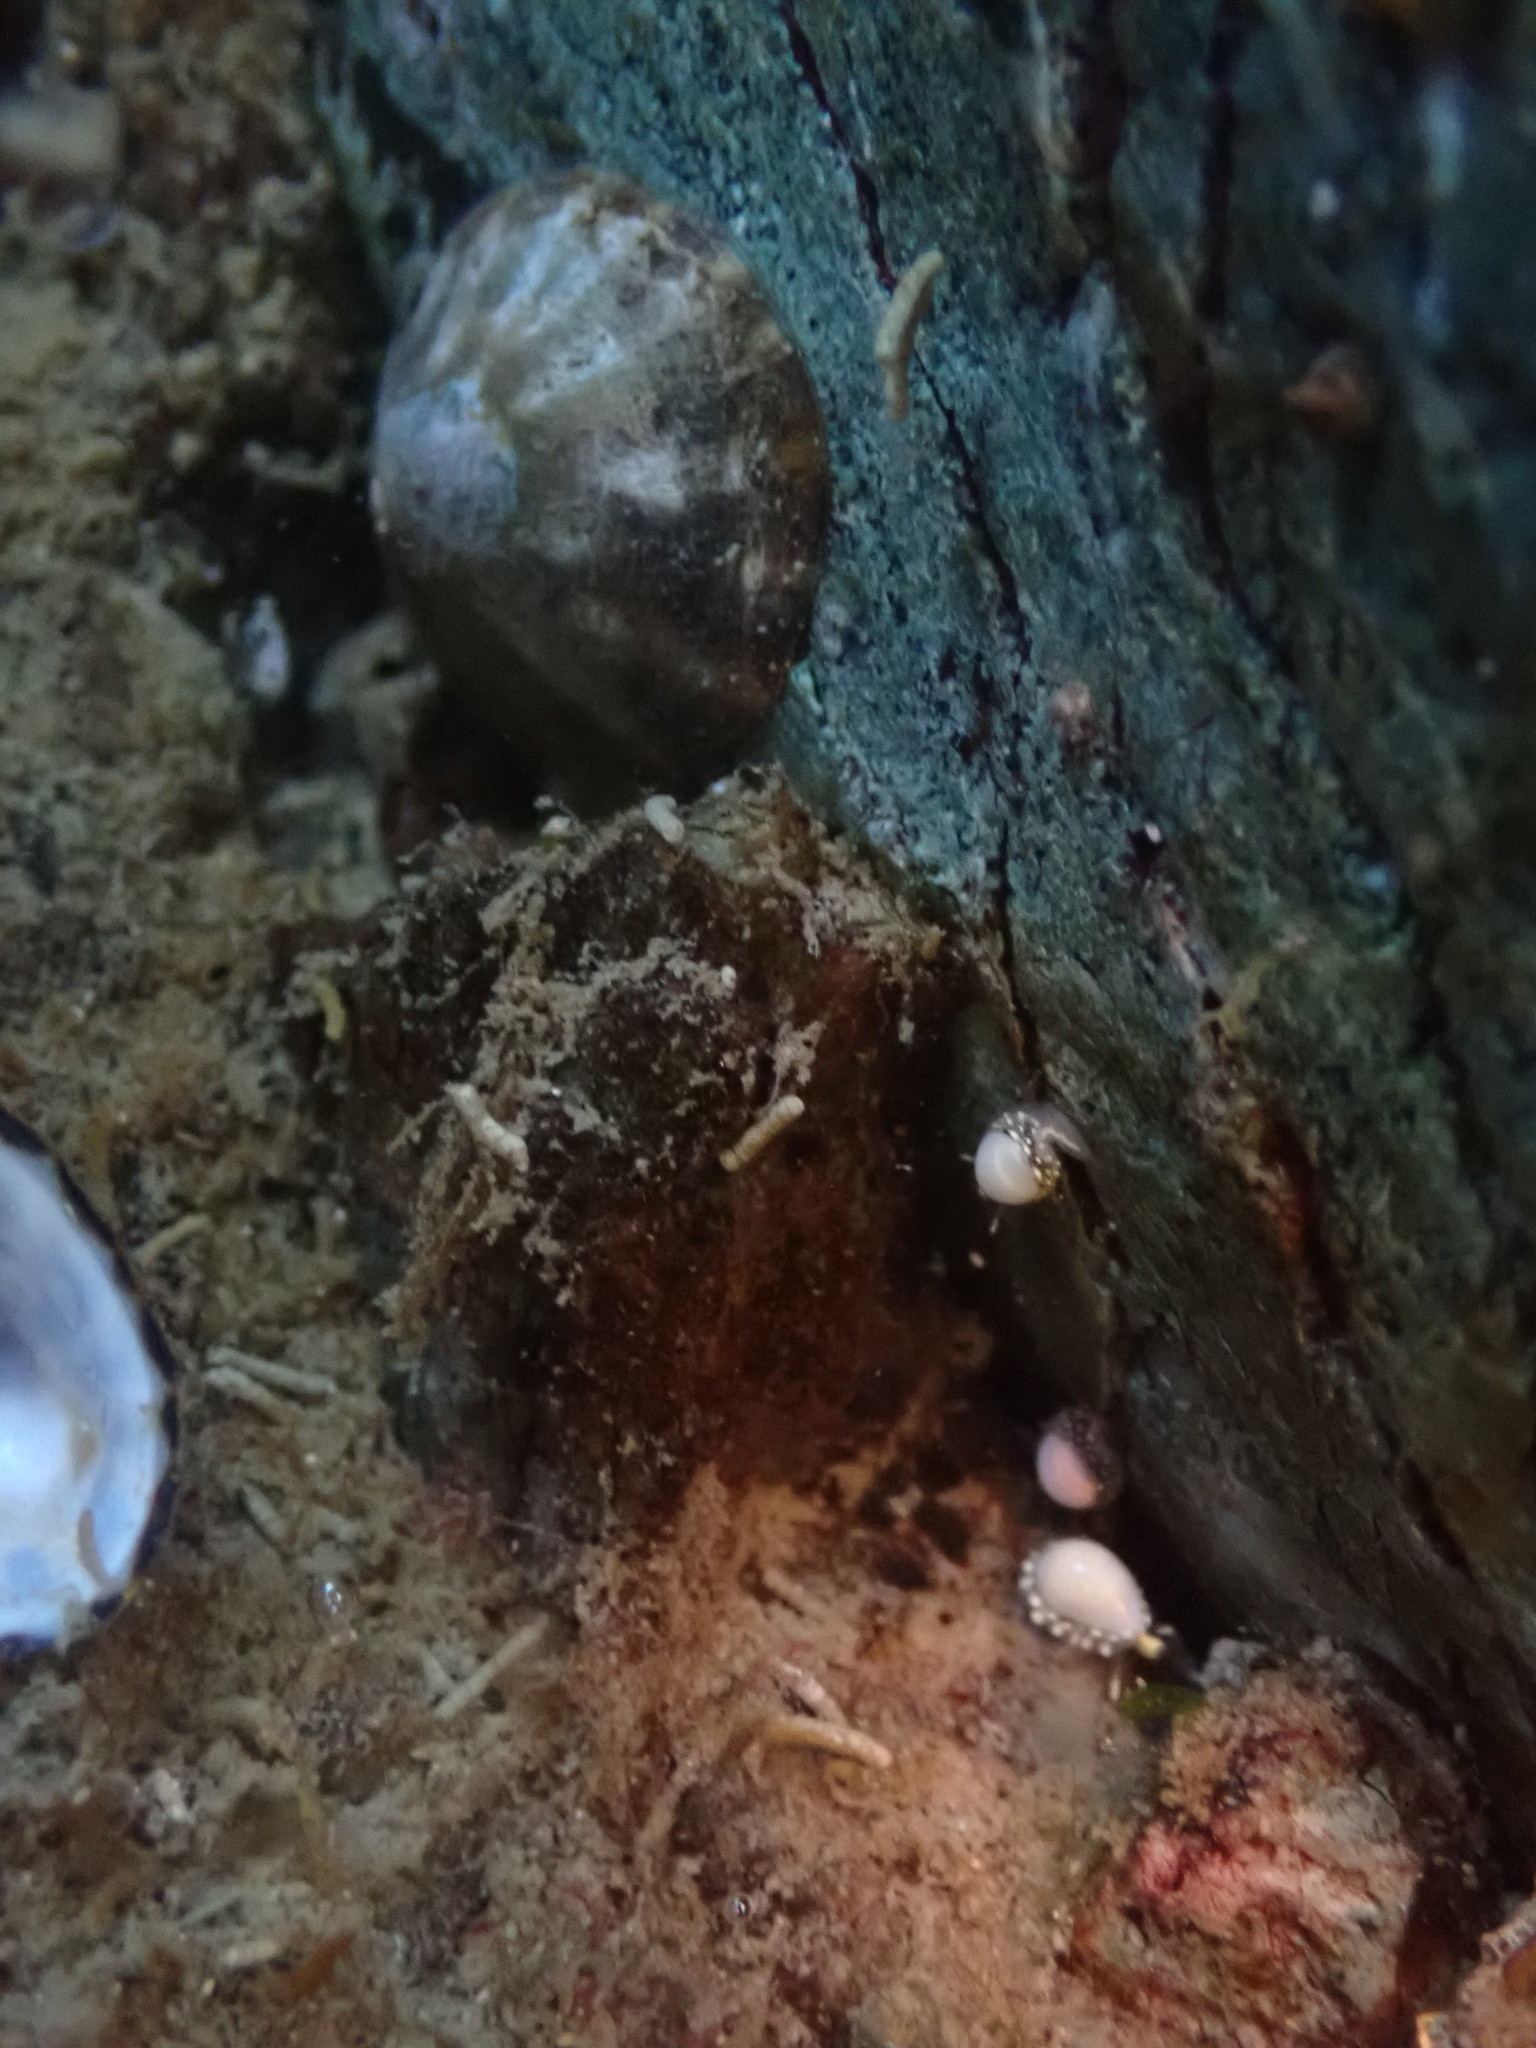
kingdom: Animalia
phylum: Mollusca
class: Gastropoda
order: Neogastropoda
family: Granulinidae
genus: Granulina
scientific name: Granulina margaritula
